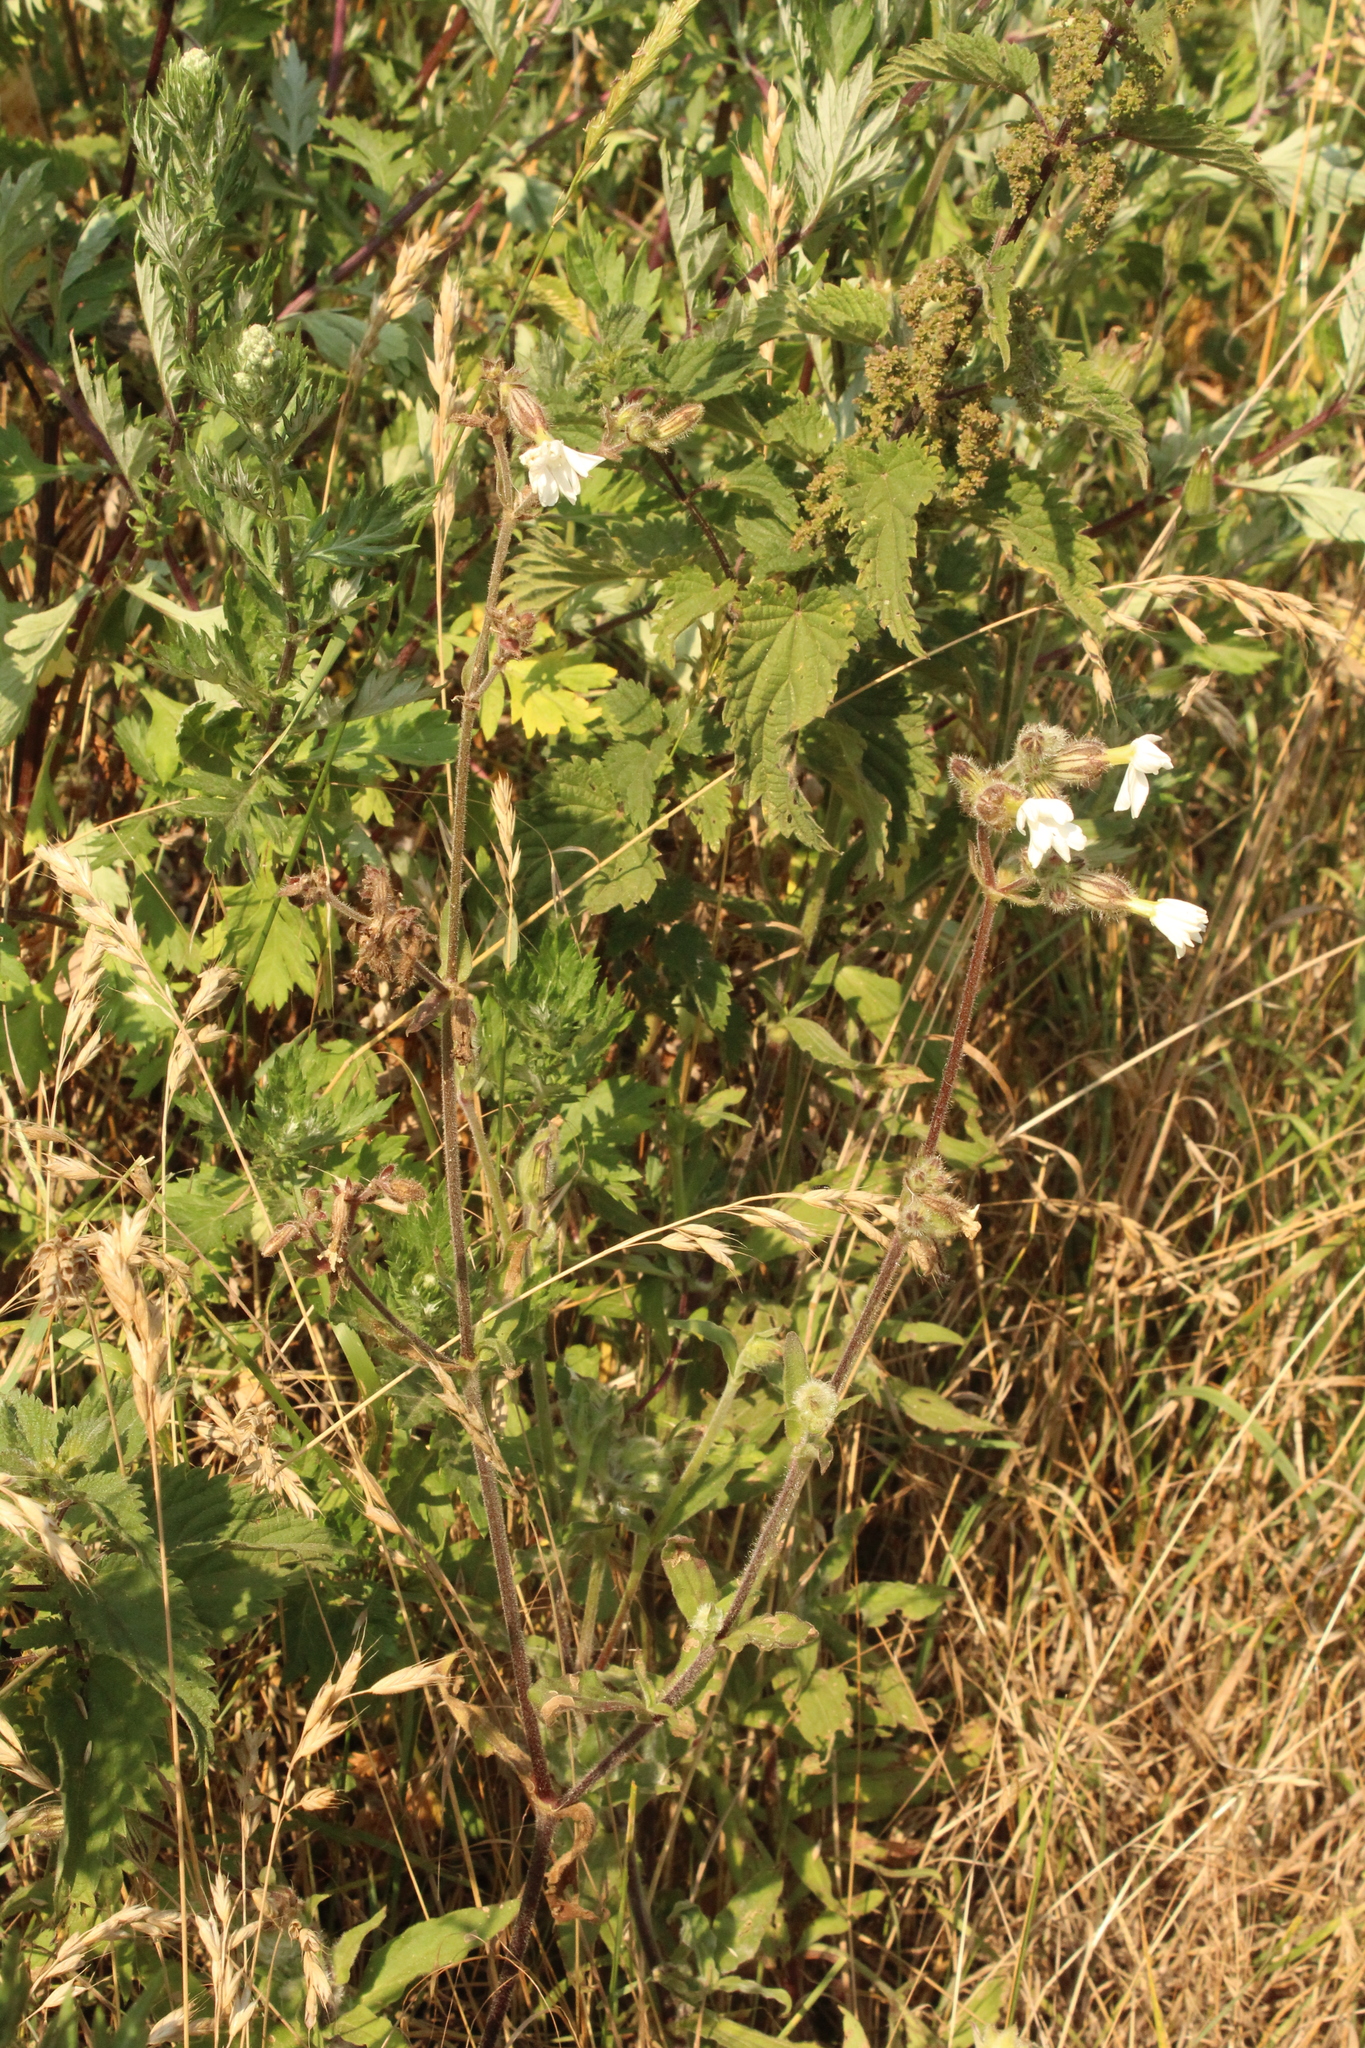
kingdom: Plantae
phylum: Tracheophyta
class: Magnoliopsida
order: Caryophyllales
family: Caryophyllaceae
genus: Silene
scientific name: Silene latifolia
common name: White campion
